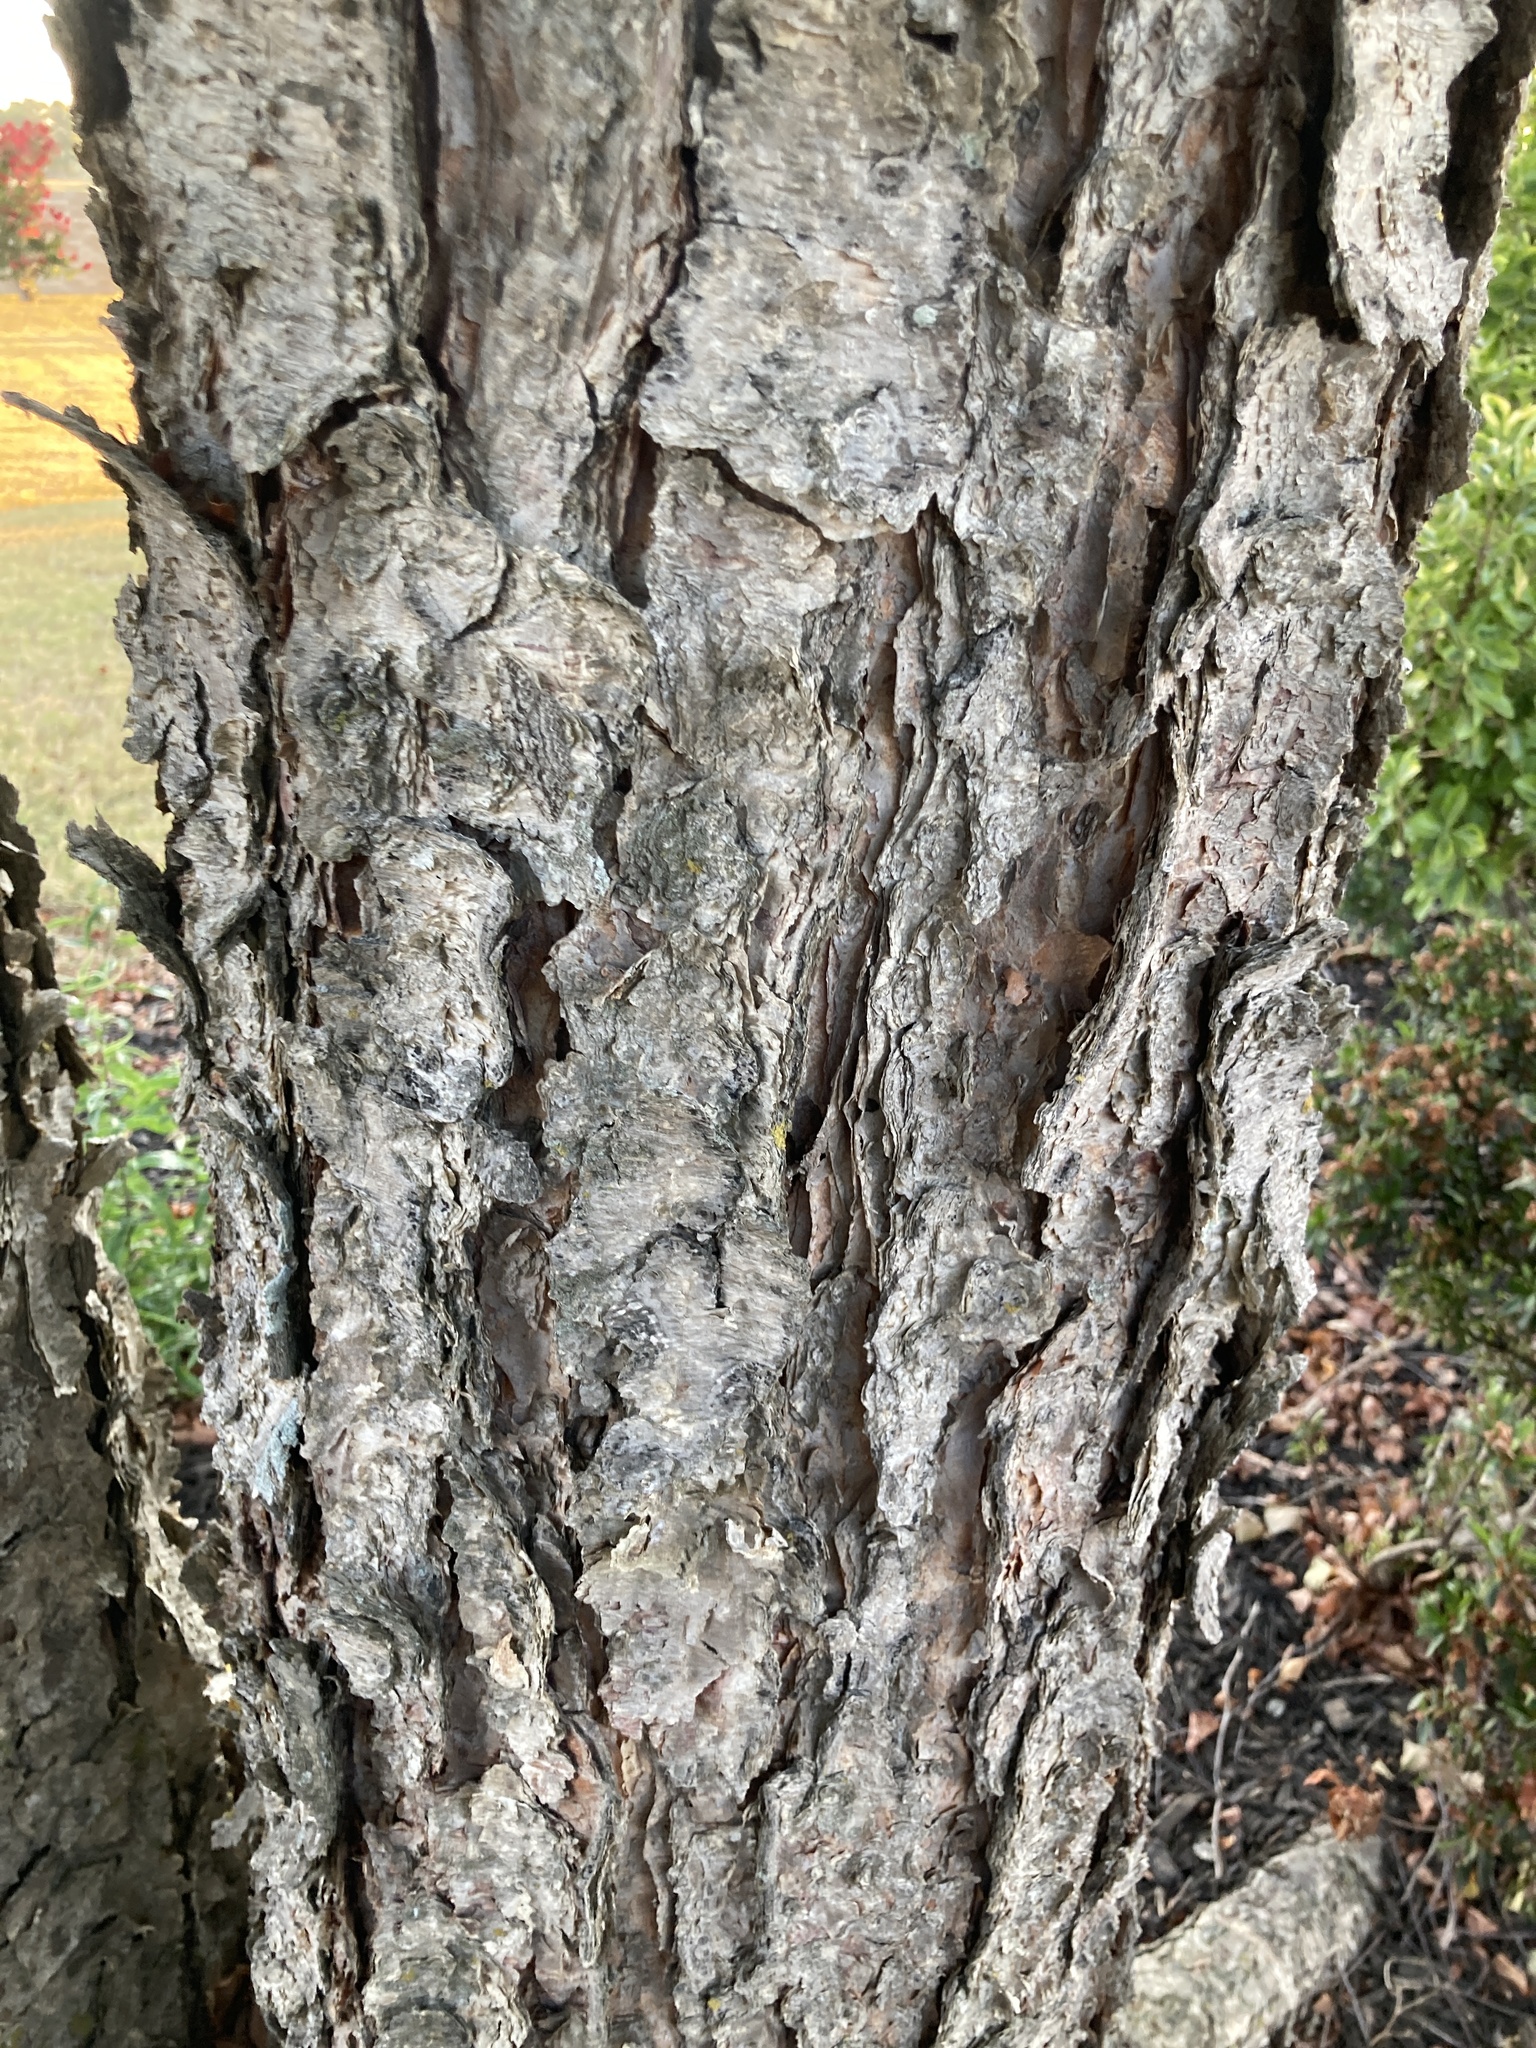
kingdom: Plantae
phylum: Tracheophyta
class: Magnoliopsida
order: Fagales
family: Betulaceae
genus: Betula
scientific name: Betula nigra
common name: Black birch
